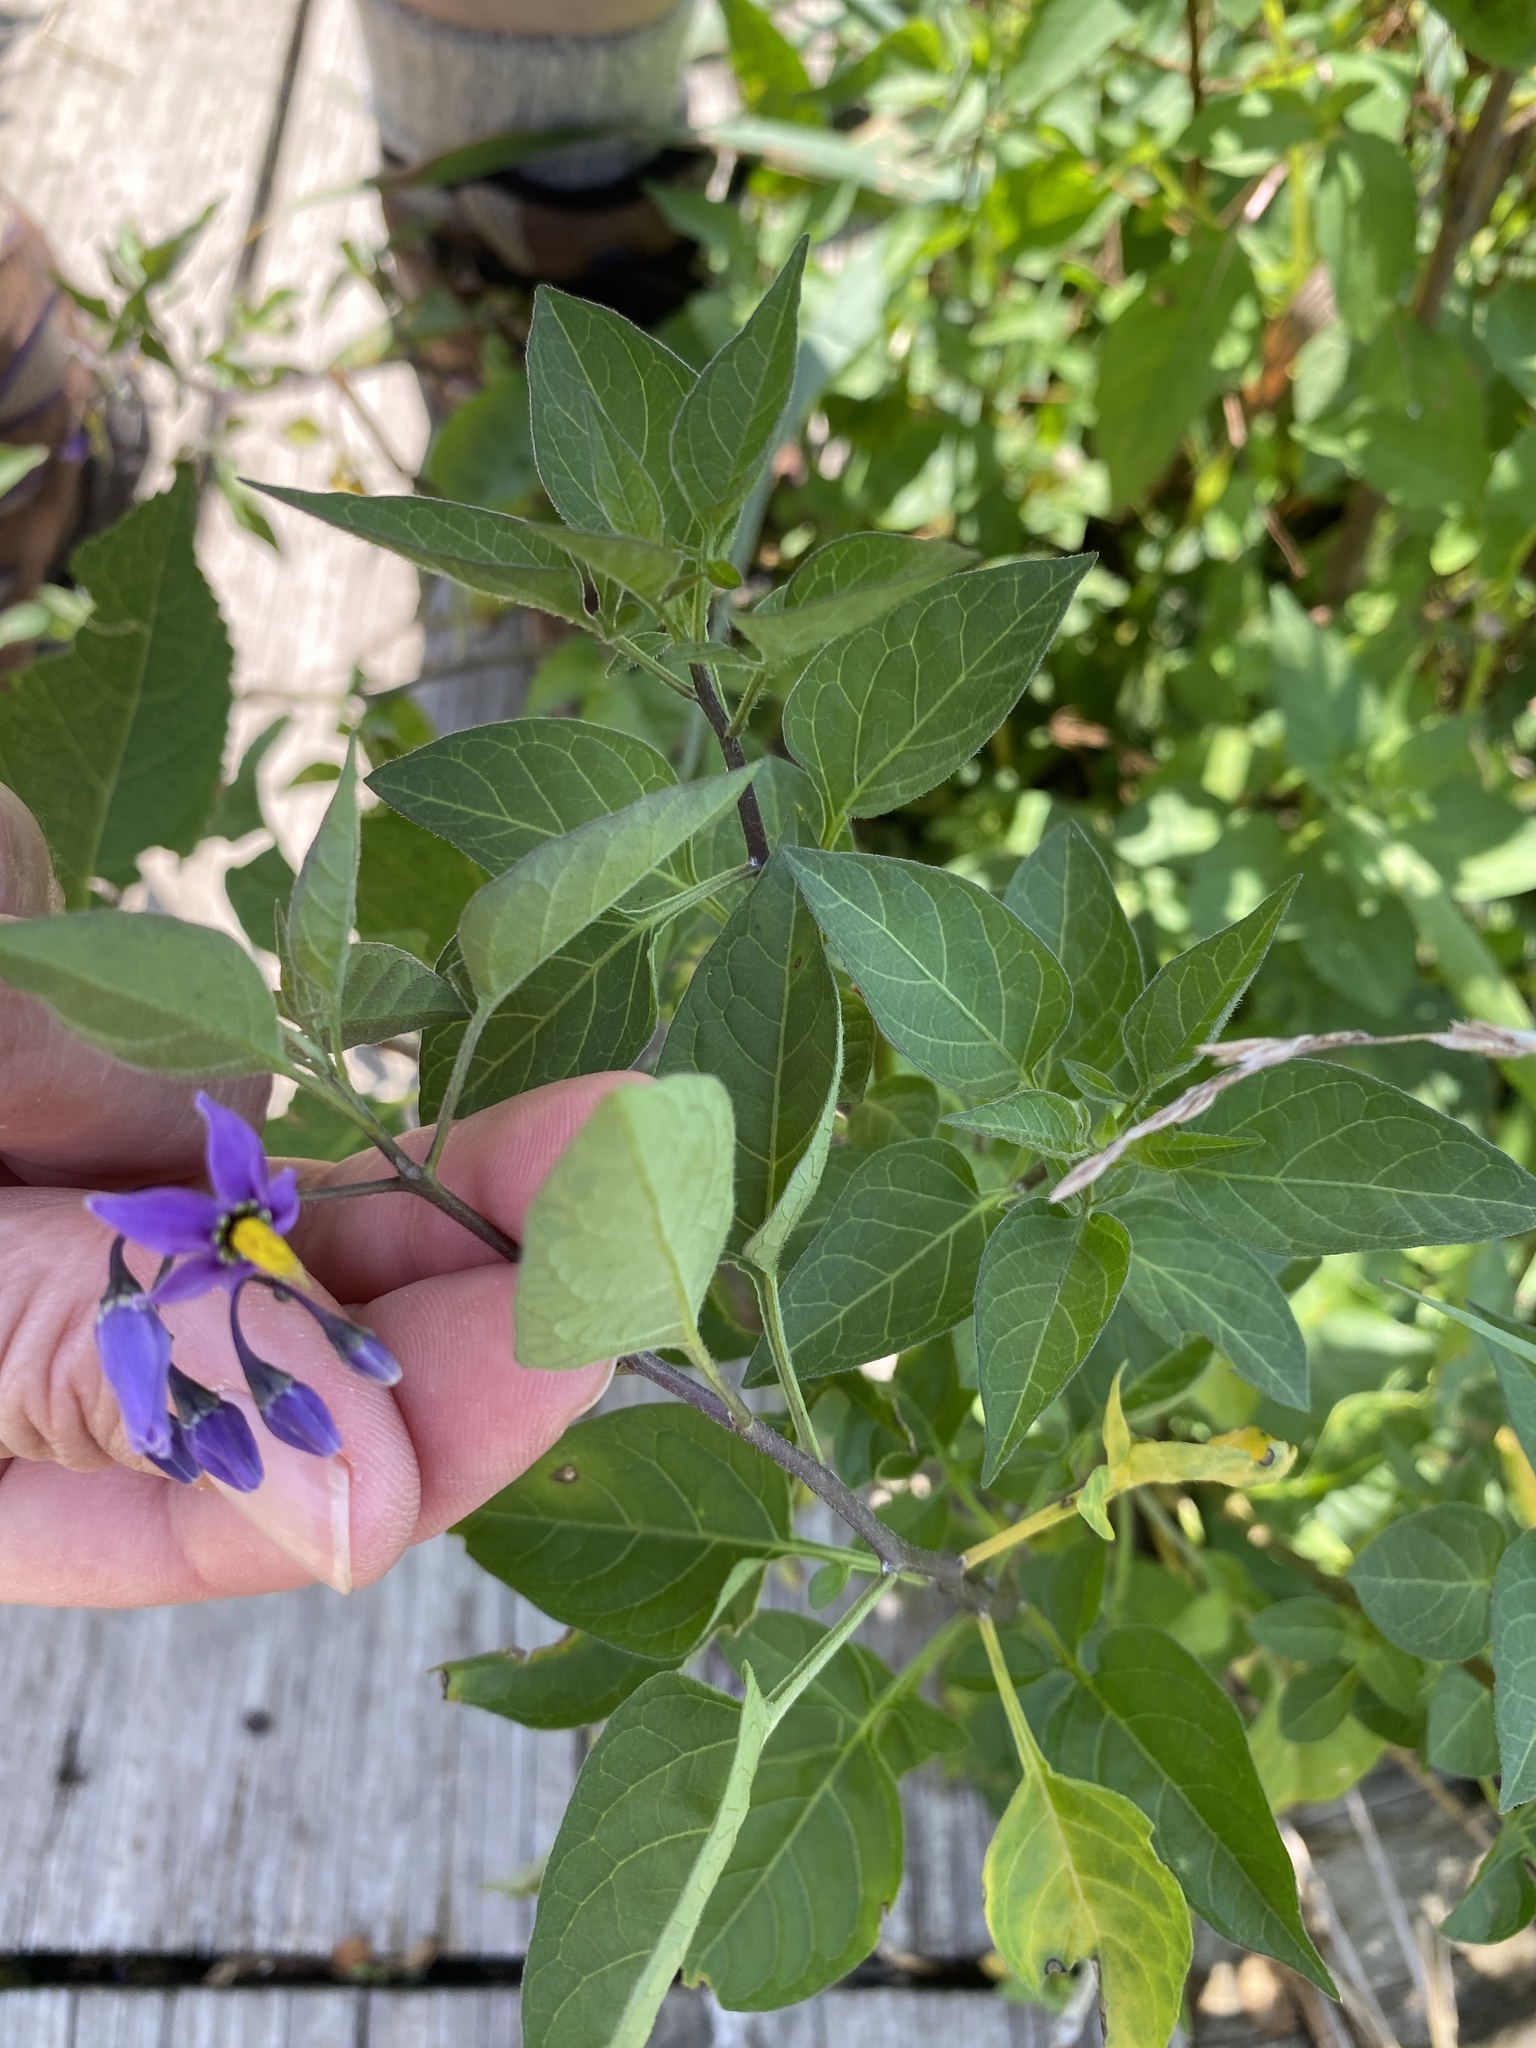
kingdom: Plantae
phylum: Tracheophyta
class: Magnoliopsida
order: Solanales
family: Solanaceae
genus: Solanum
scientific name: Solanum dulcamara
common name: Climbing nightshade
